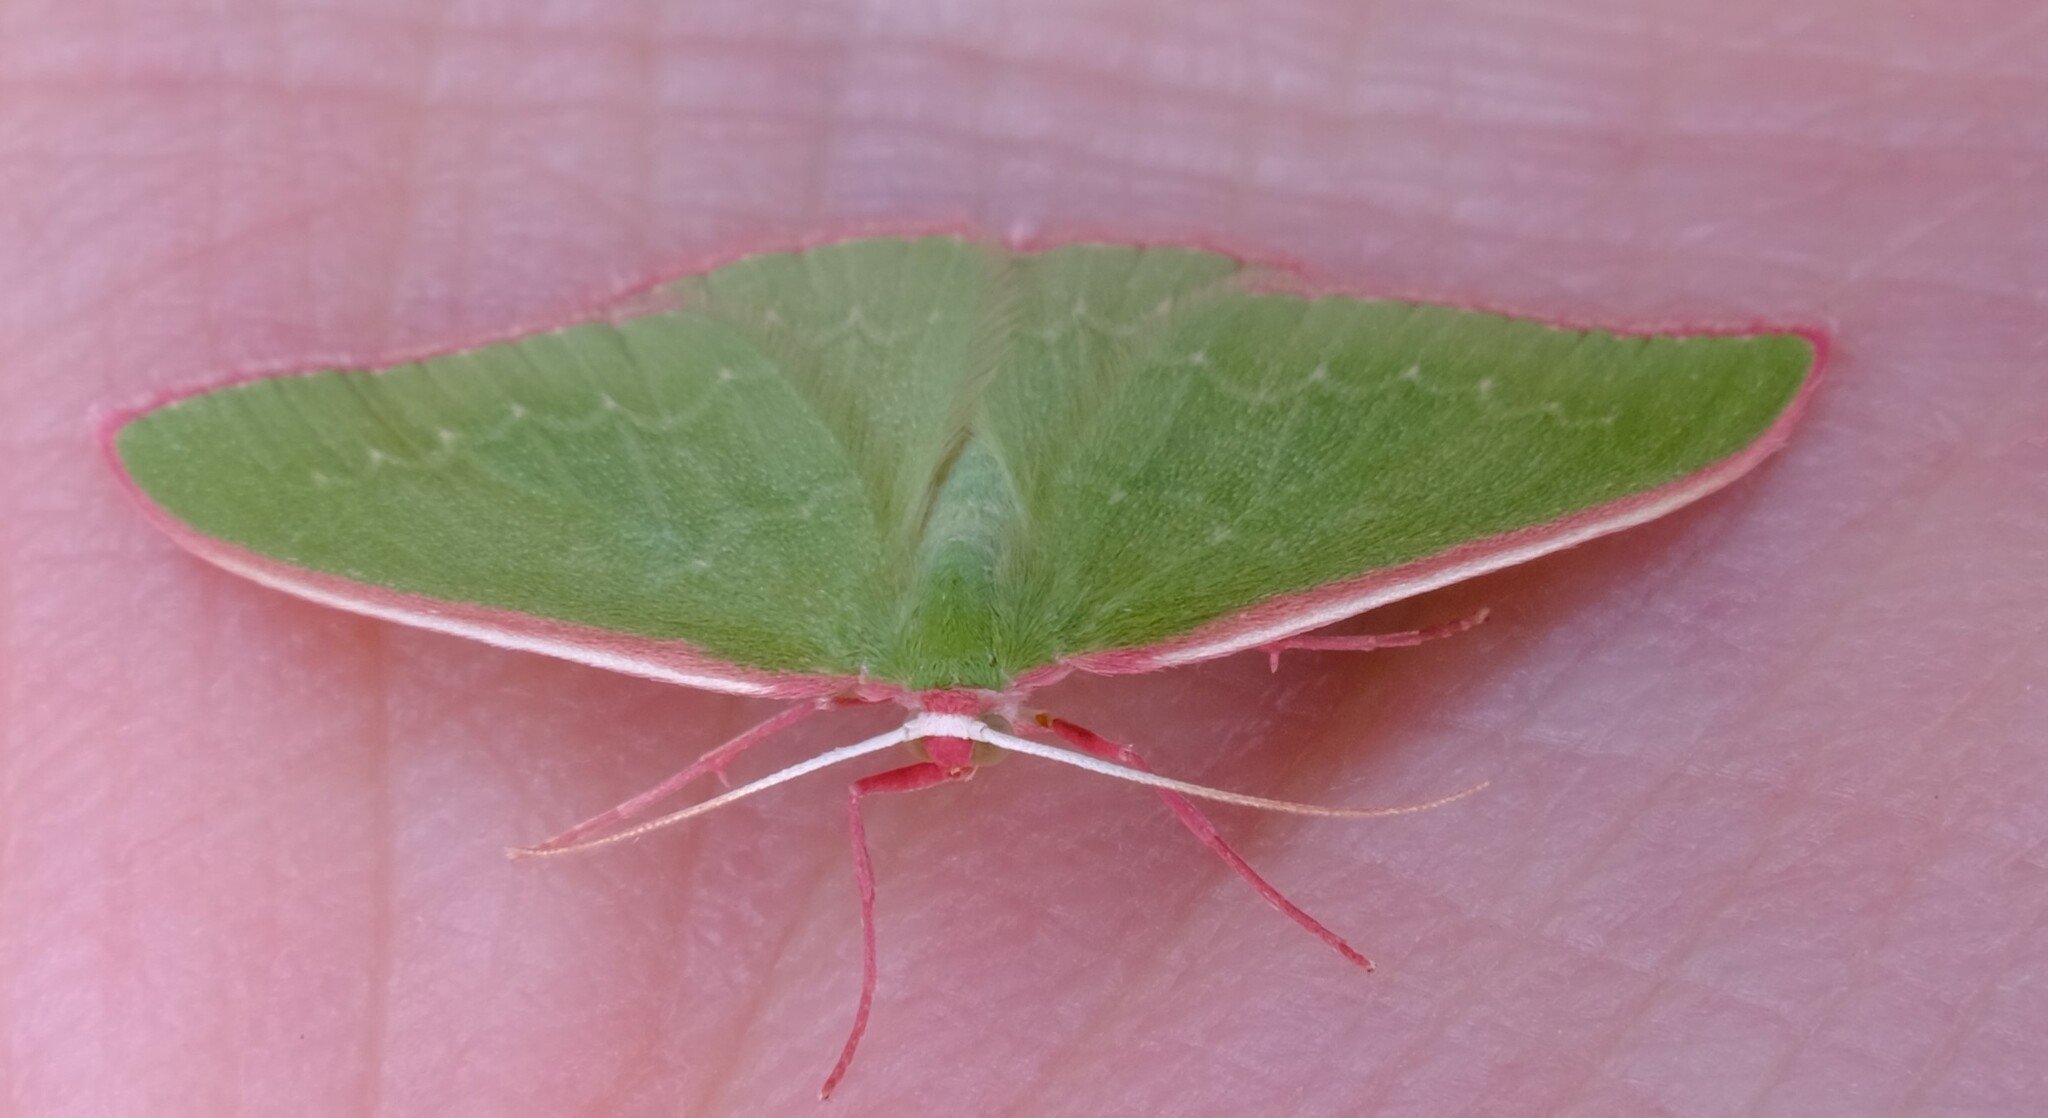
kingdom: Animalia
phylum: Arthropoda
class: Insecta
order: Lepidoptera
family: Geometridae
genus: Prasinocyma
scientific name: Prasinocyma semicrocea
